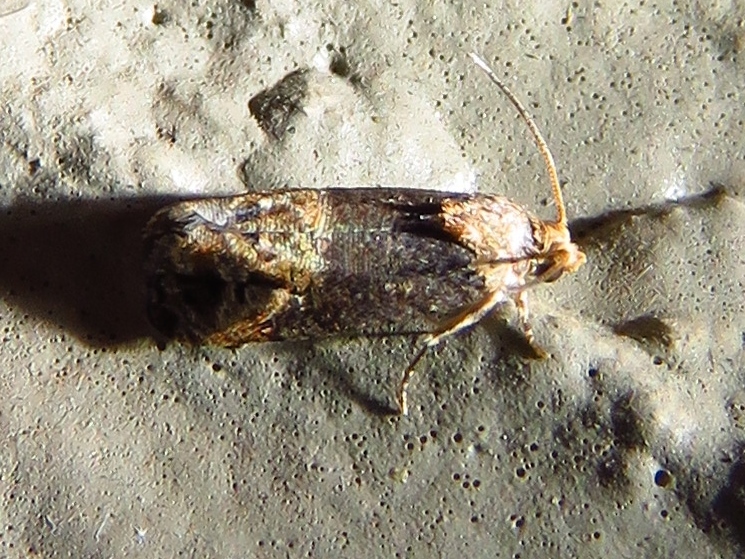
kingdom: Animalia
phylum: Arthropoda
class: Insecta
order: Lepidoptera
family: Tortricidae
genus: Paralobesia
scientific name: Paralobesia viteana
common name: Grape berry moth
